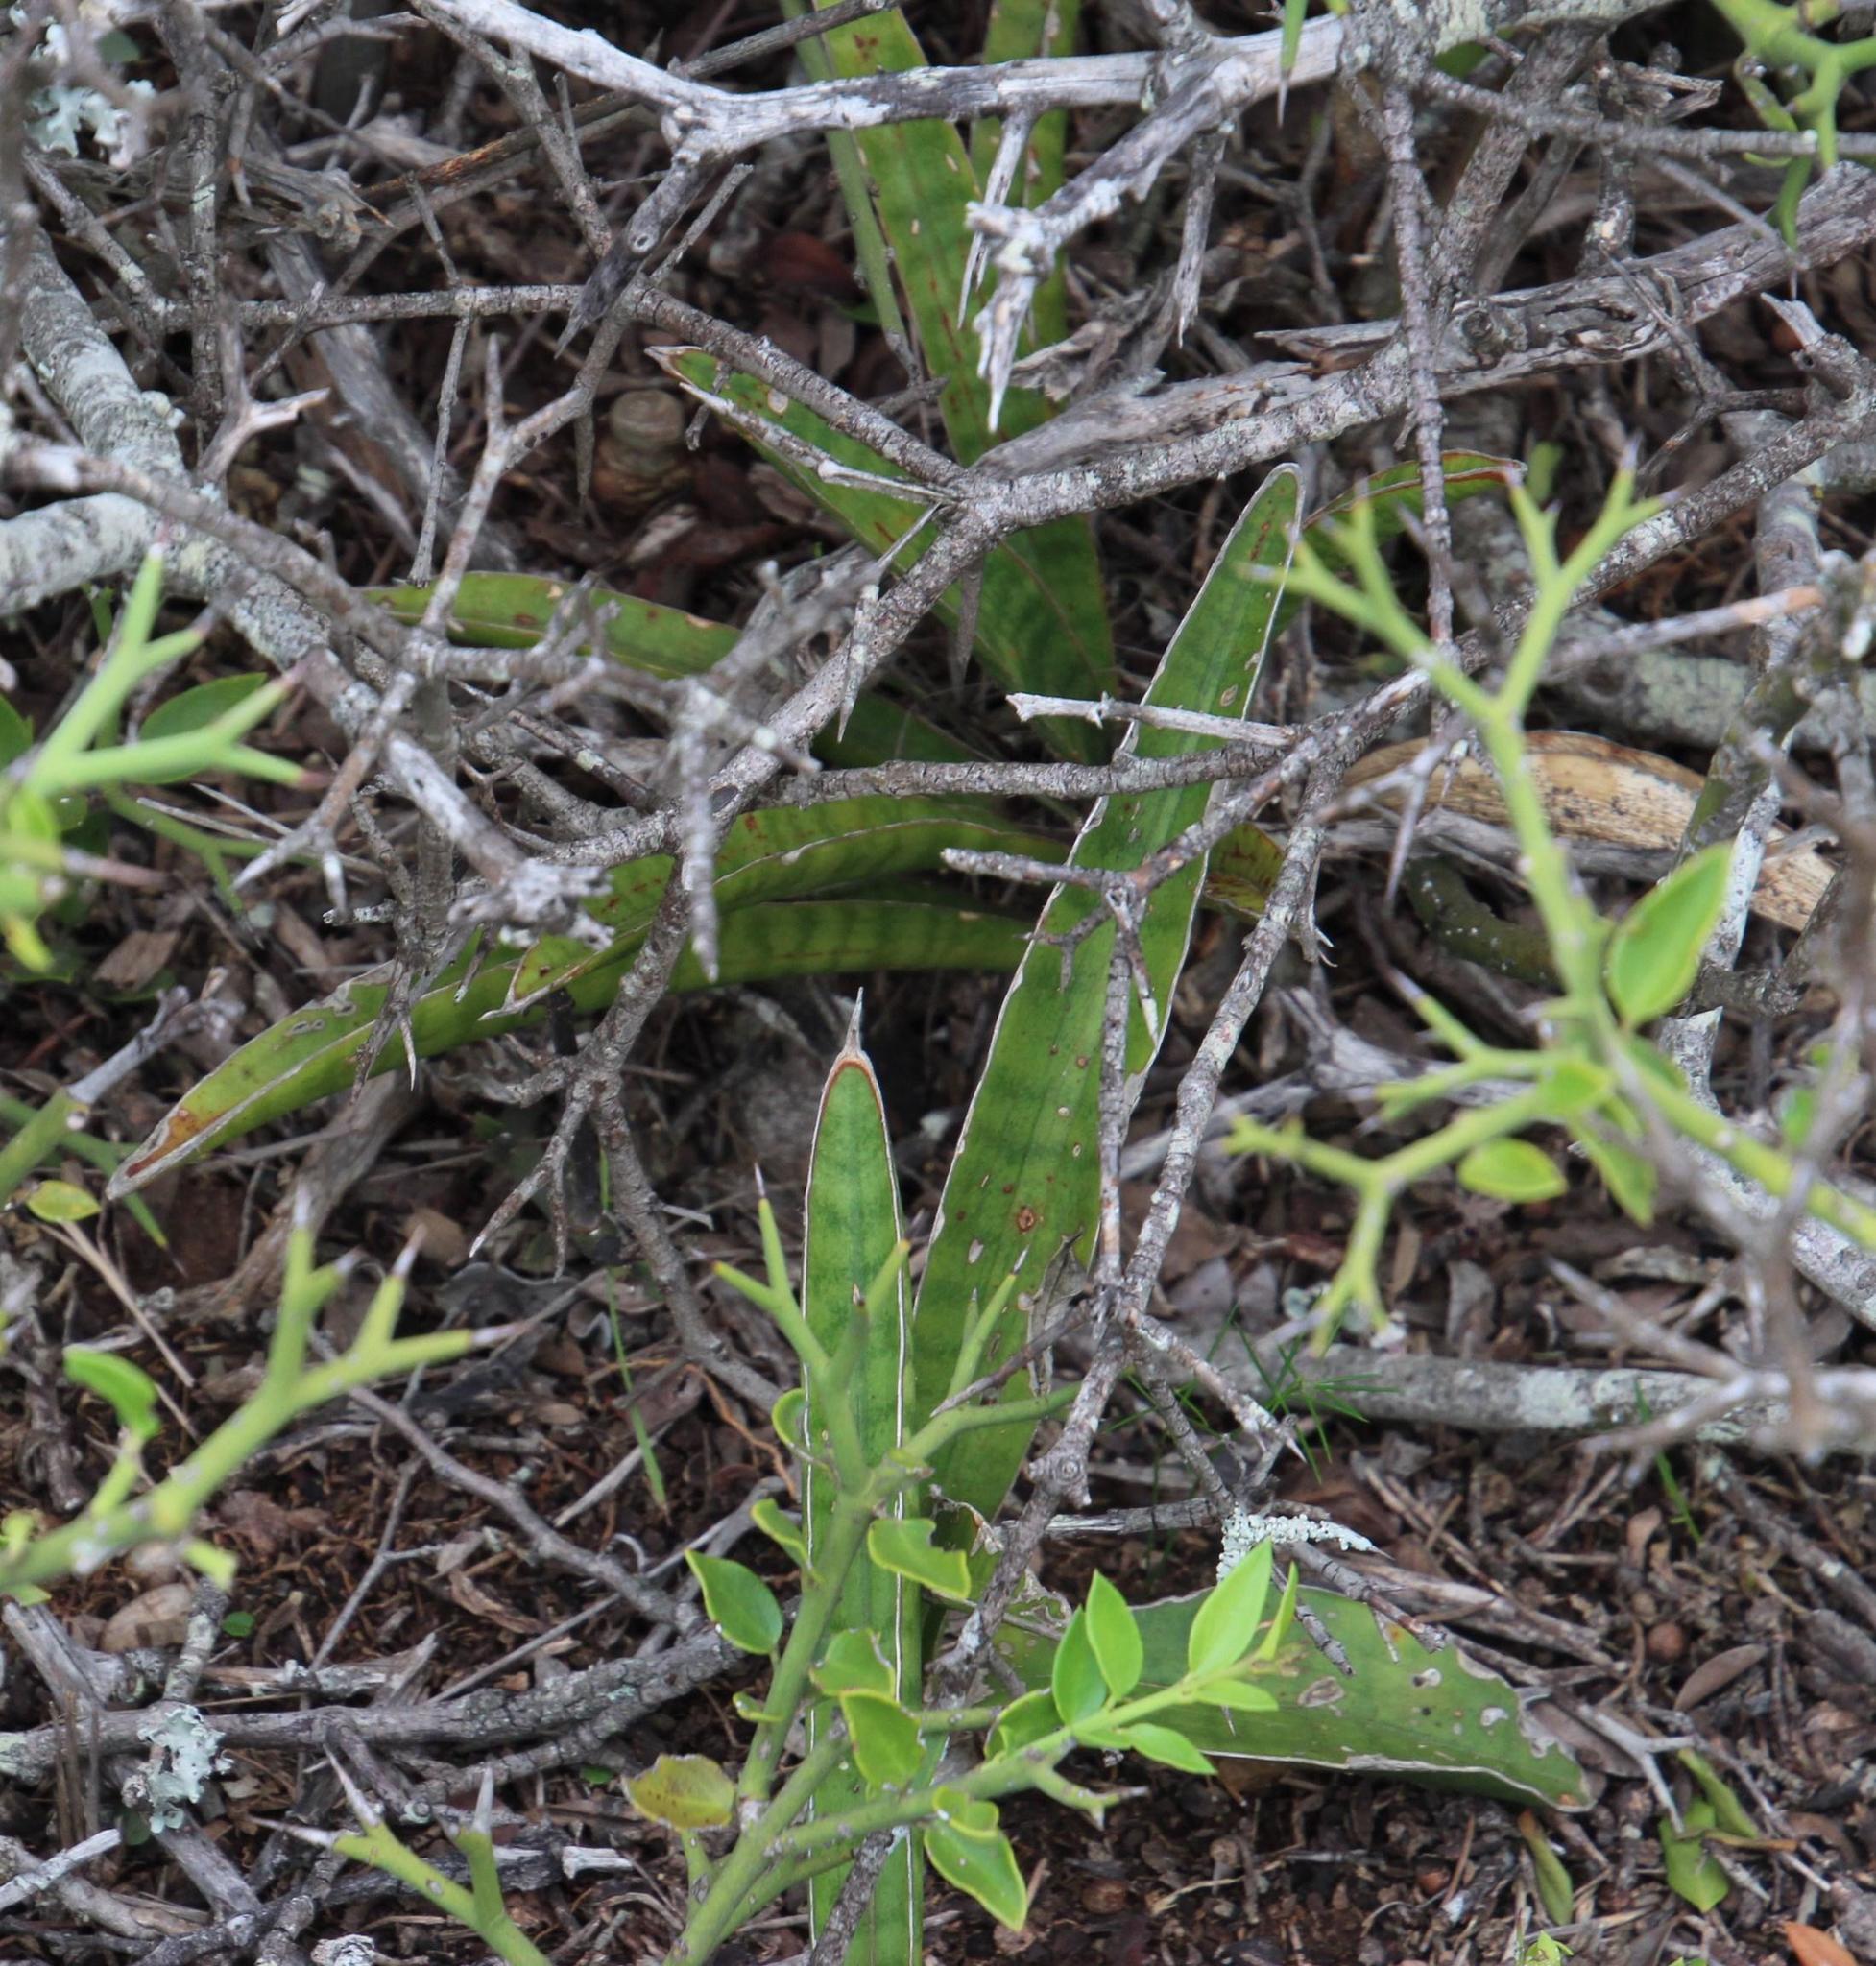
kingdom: Plantae
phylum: Tracheophyta
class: Liliopsida
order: Asparagales
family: Asparagaceae
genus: Dracaena
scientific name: Dracaena aethiopica
